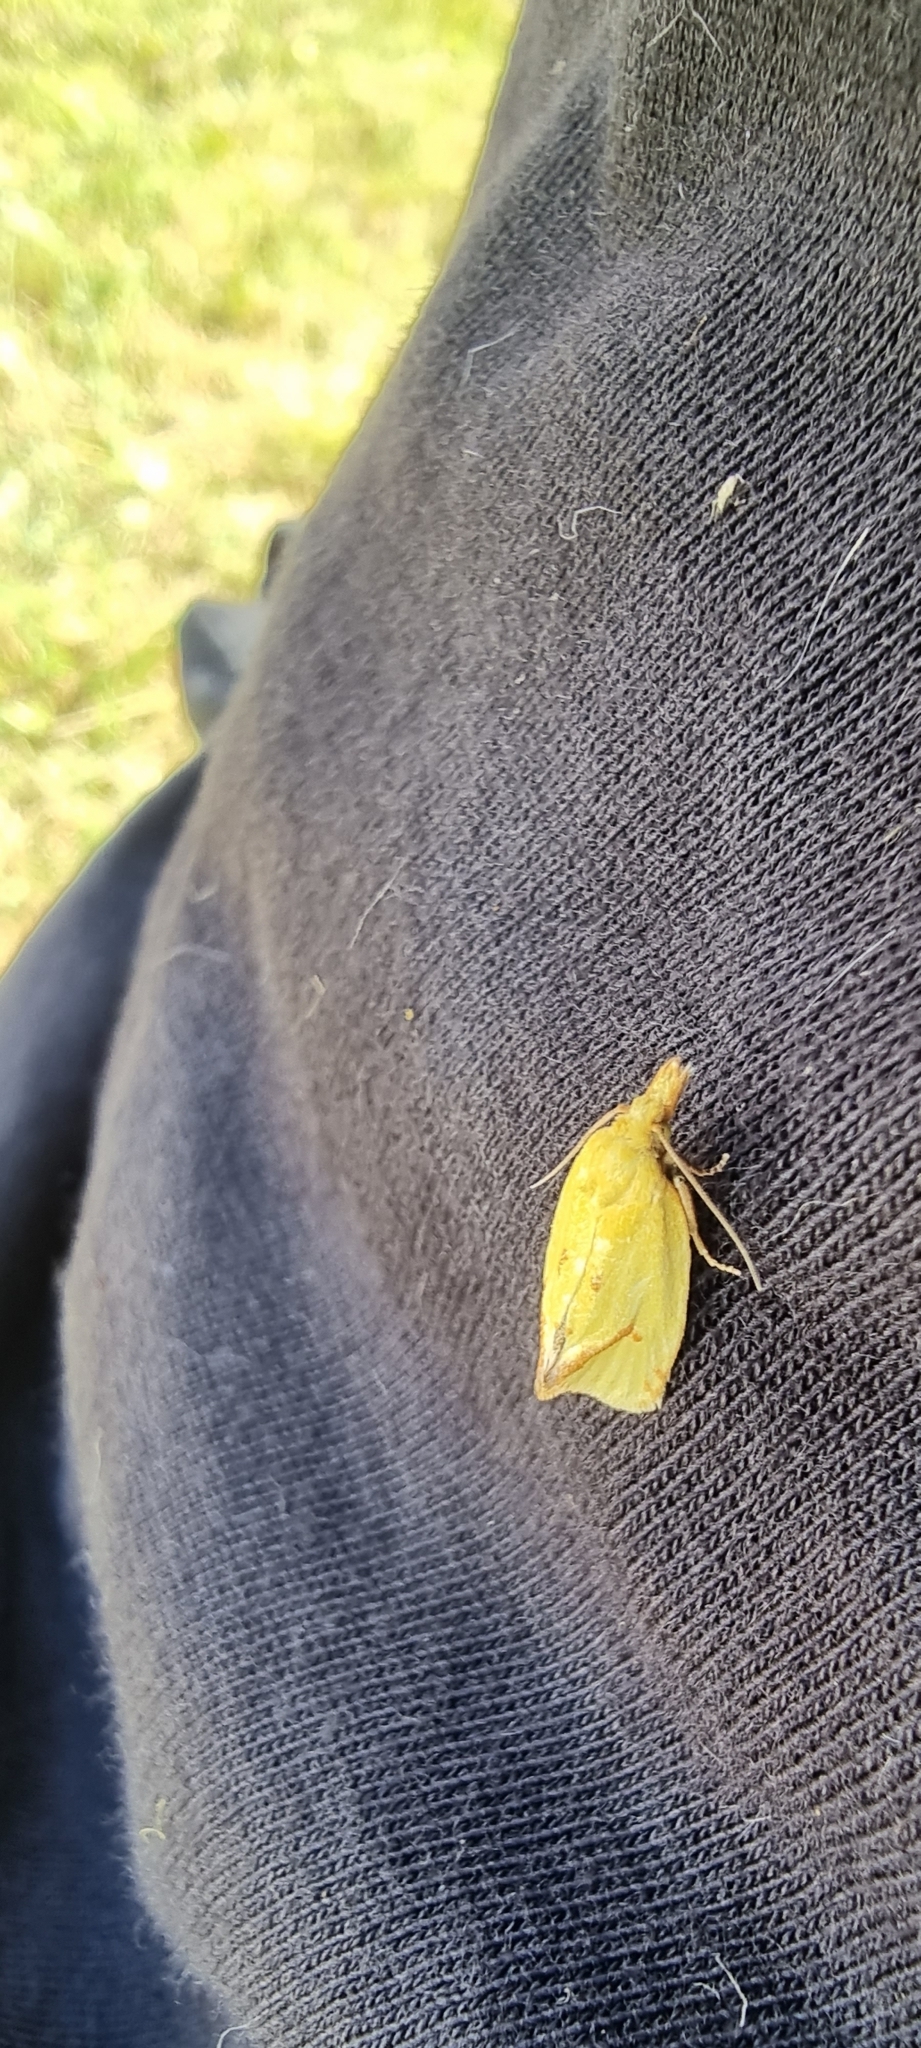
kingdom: Animalia
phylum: Arthropoda
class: Insecta
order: Lepidoptera
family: Tortricidae
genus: Agapeta
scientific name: Agapeta hamana
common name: Common yellow conch
